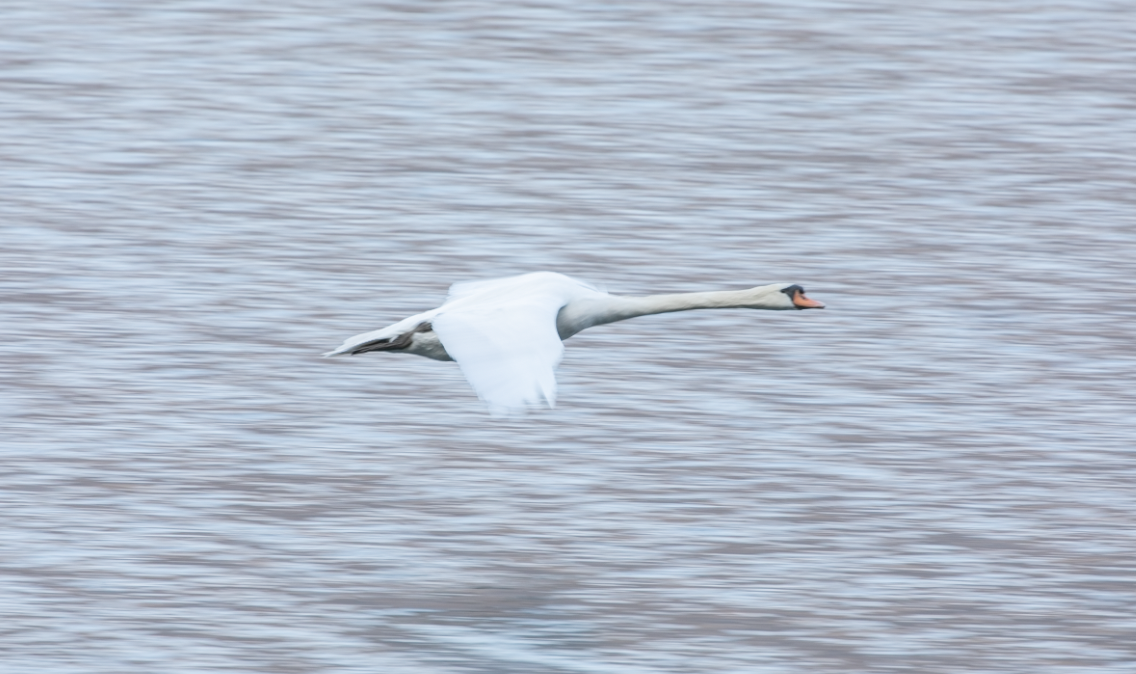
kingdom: Animalia
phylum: Chordata
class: Aves
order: Anseriformes
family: Anatidae
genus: Cygnus
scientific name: Cygnus olor
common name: Mute swan
